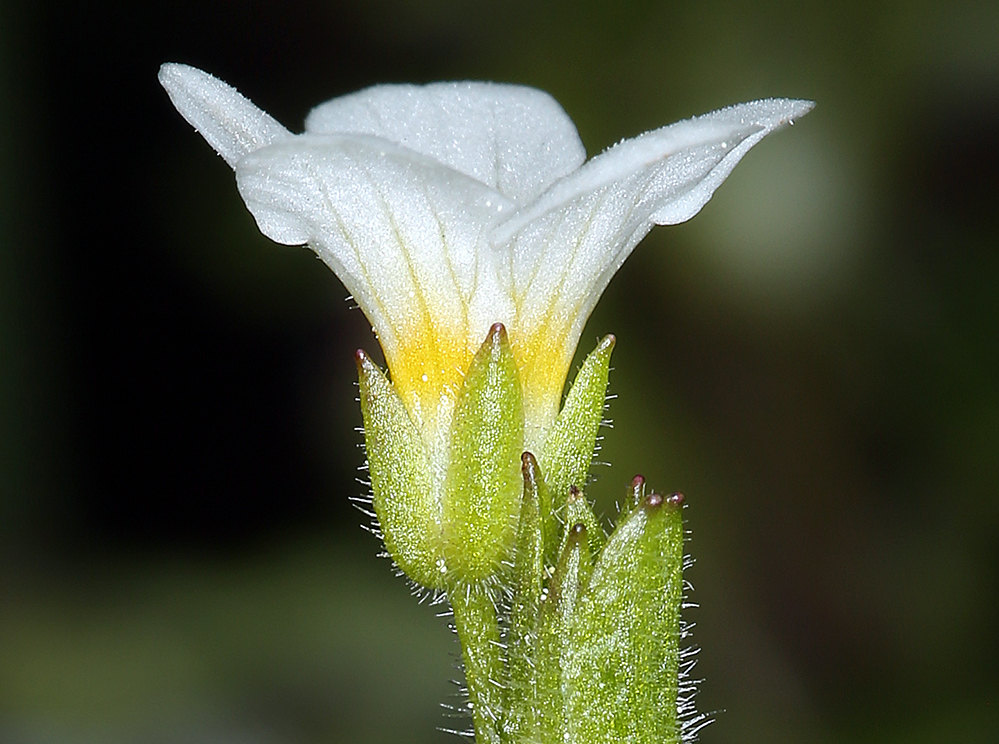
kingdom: Plantae
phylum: Tracheophyta
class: Magnoliopsida
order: Boraginales
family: Hydrophyllaceae
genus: Romanzoffia
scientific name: Romanzoffia tracyi
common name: Tracy's mistmaid
